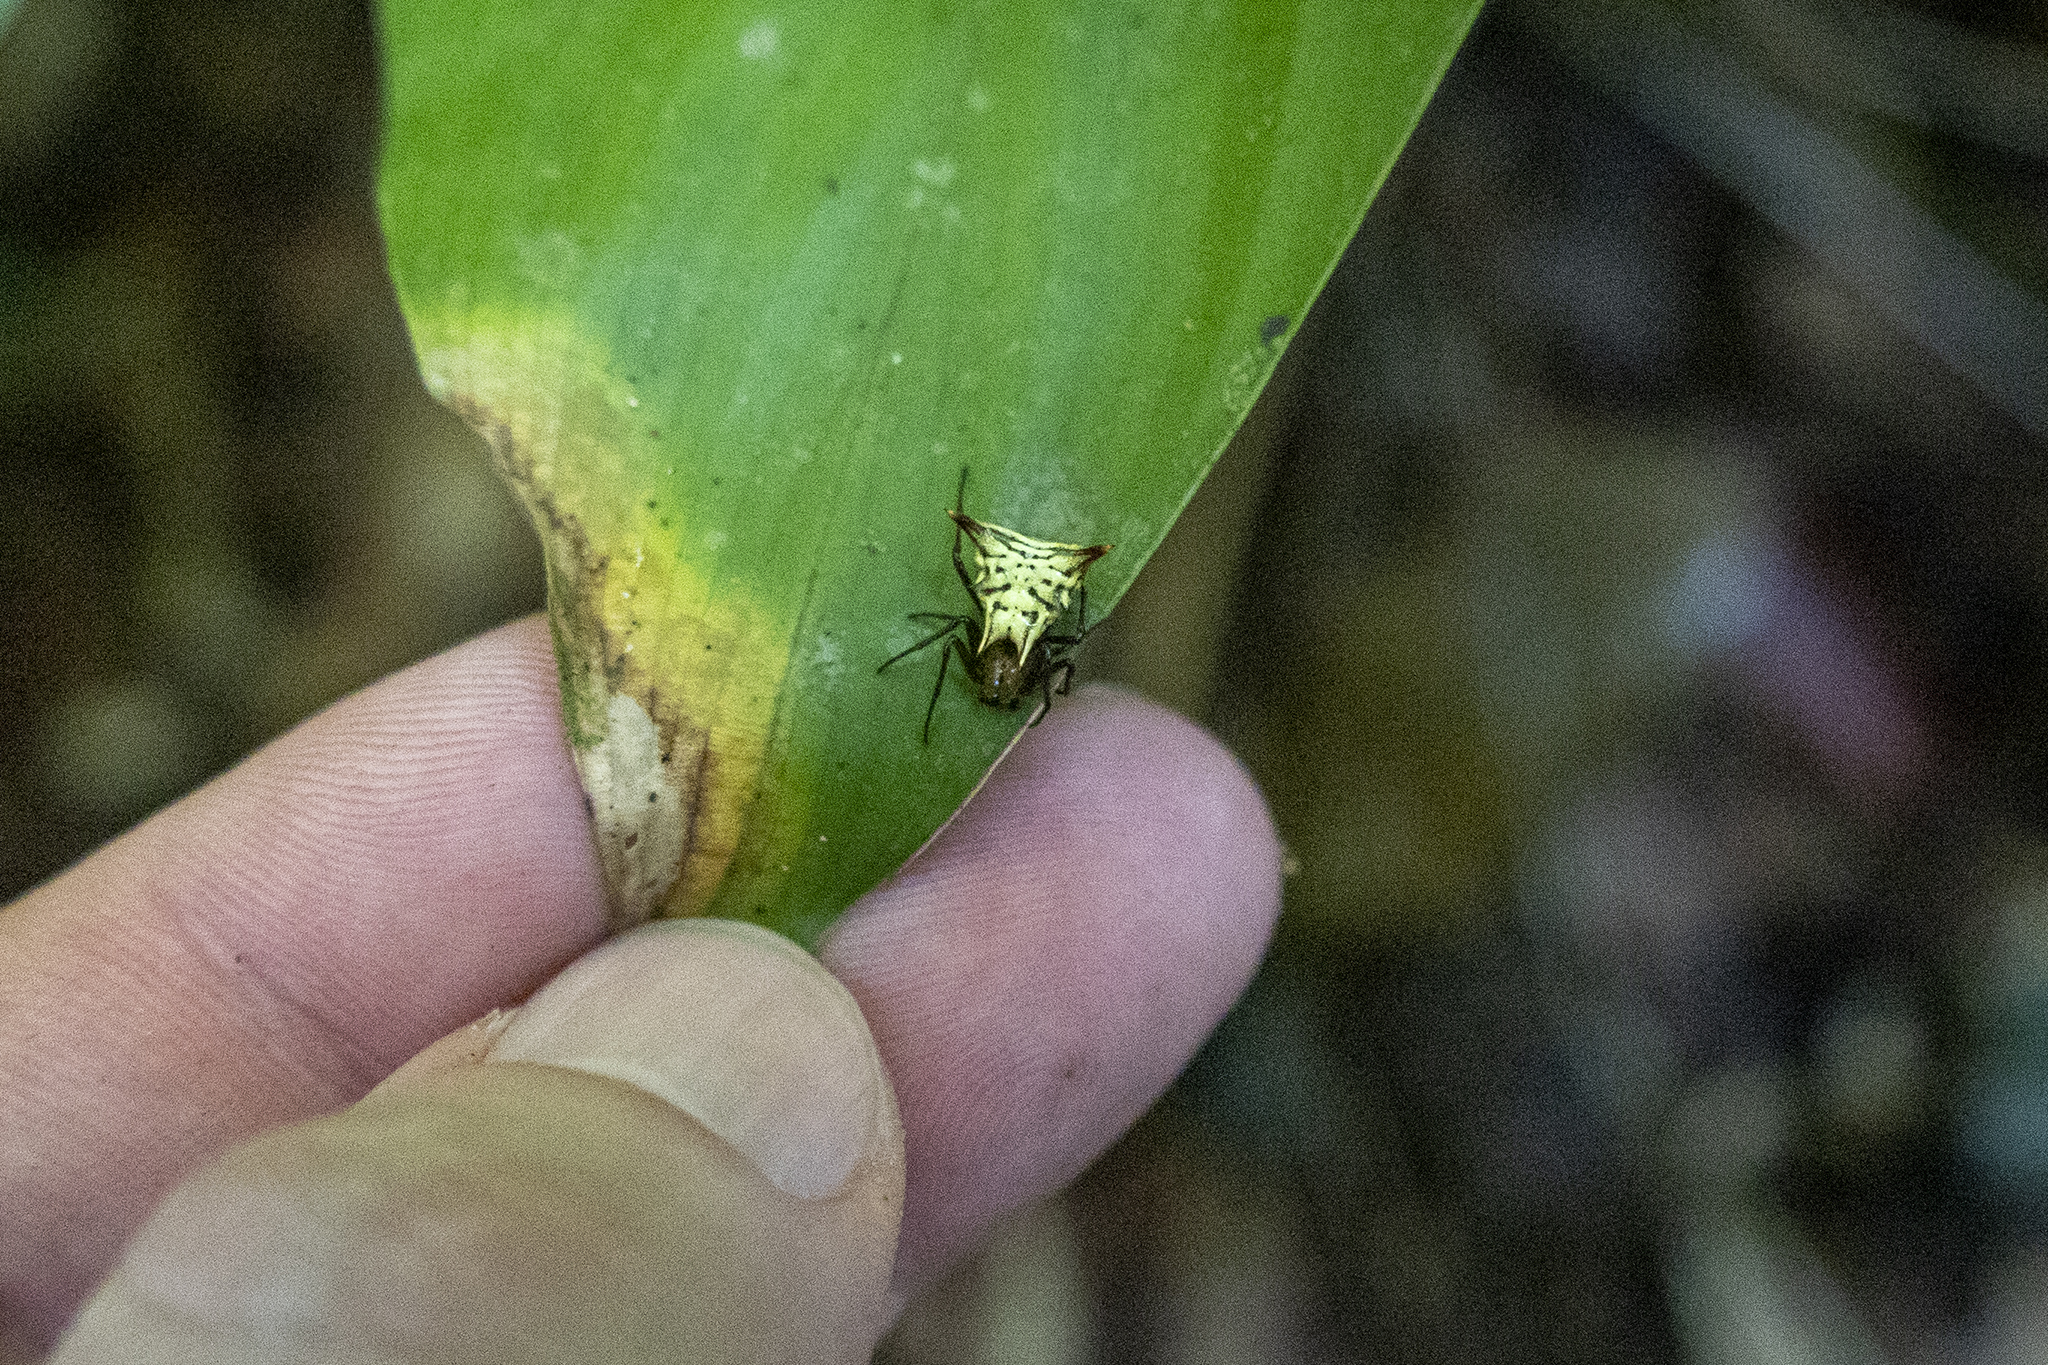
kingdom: Animalia
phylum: Arthropoda
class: Arachnida
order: Araneae
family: Araneidae
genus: Micrathena
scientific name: Micrathena acuta
